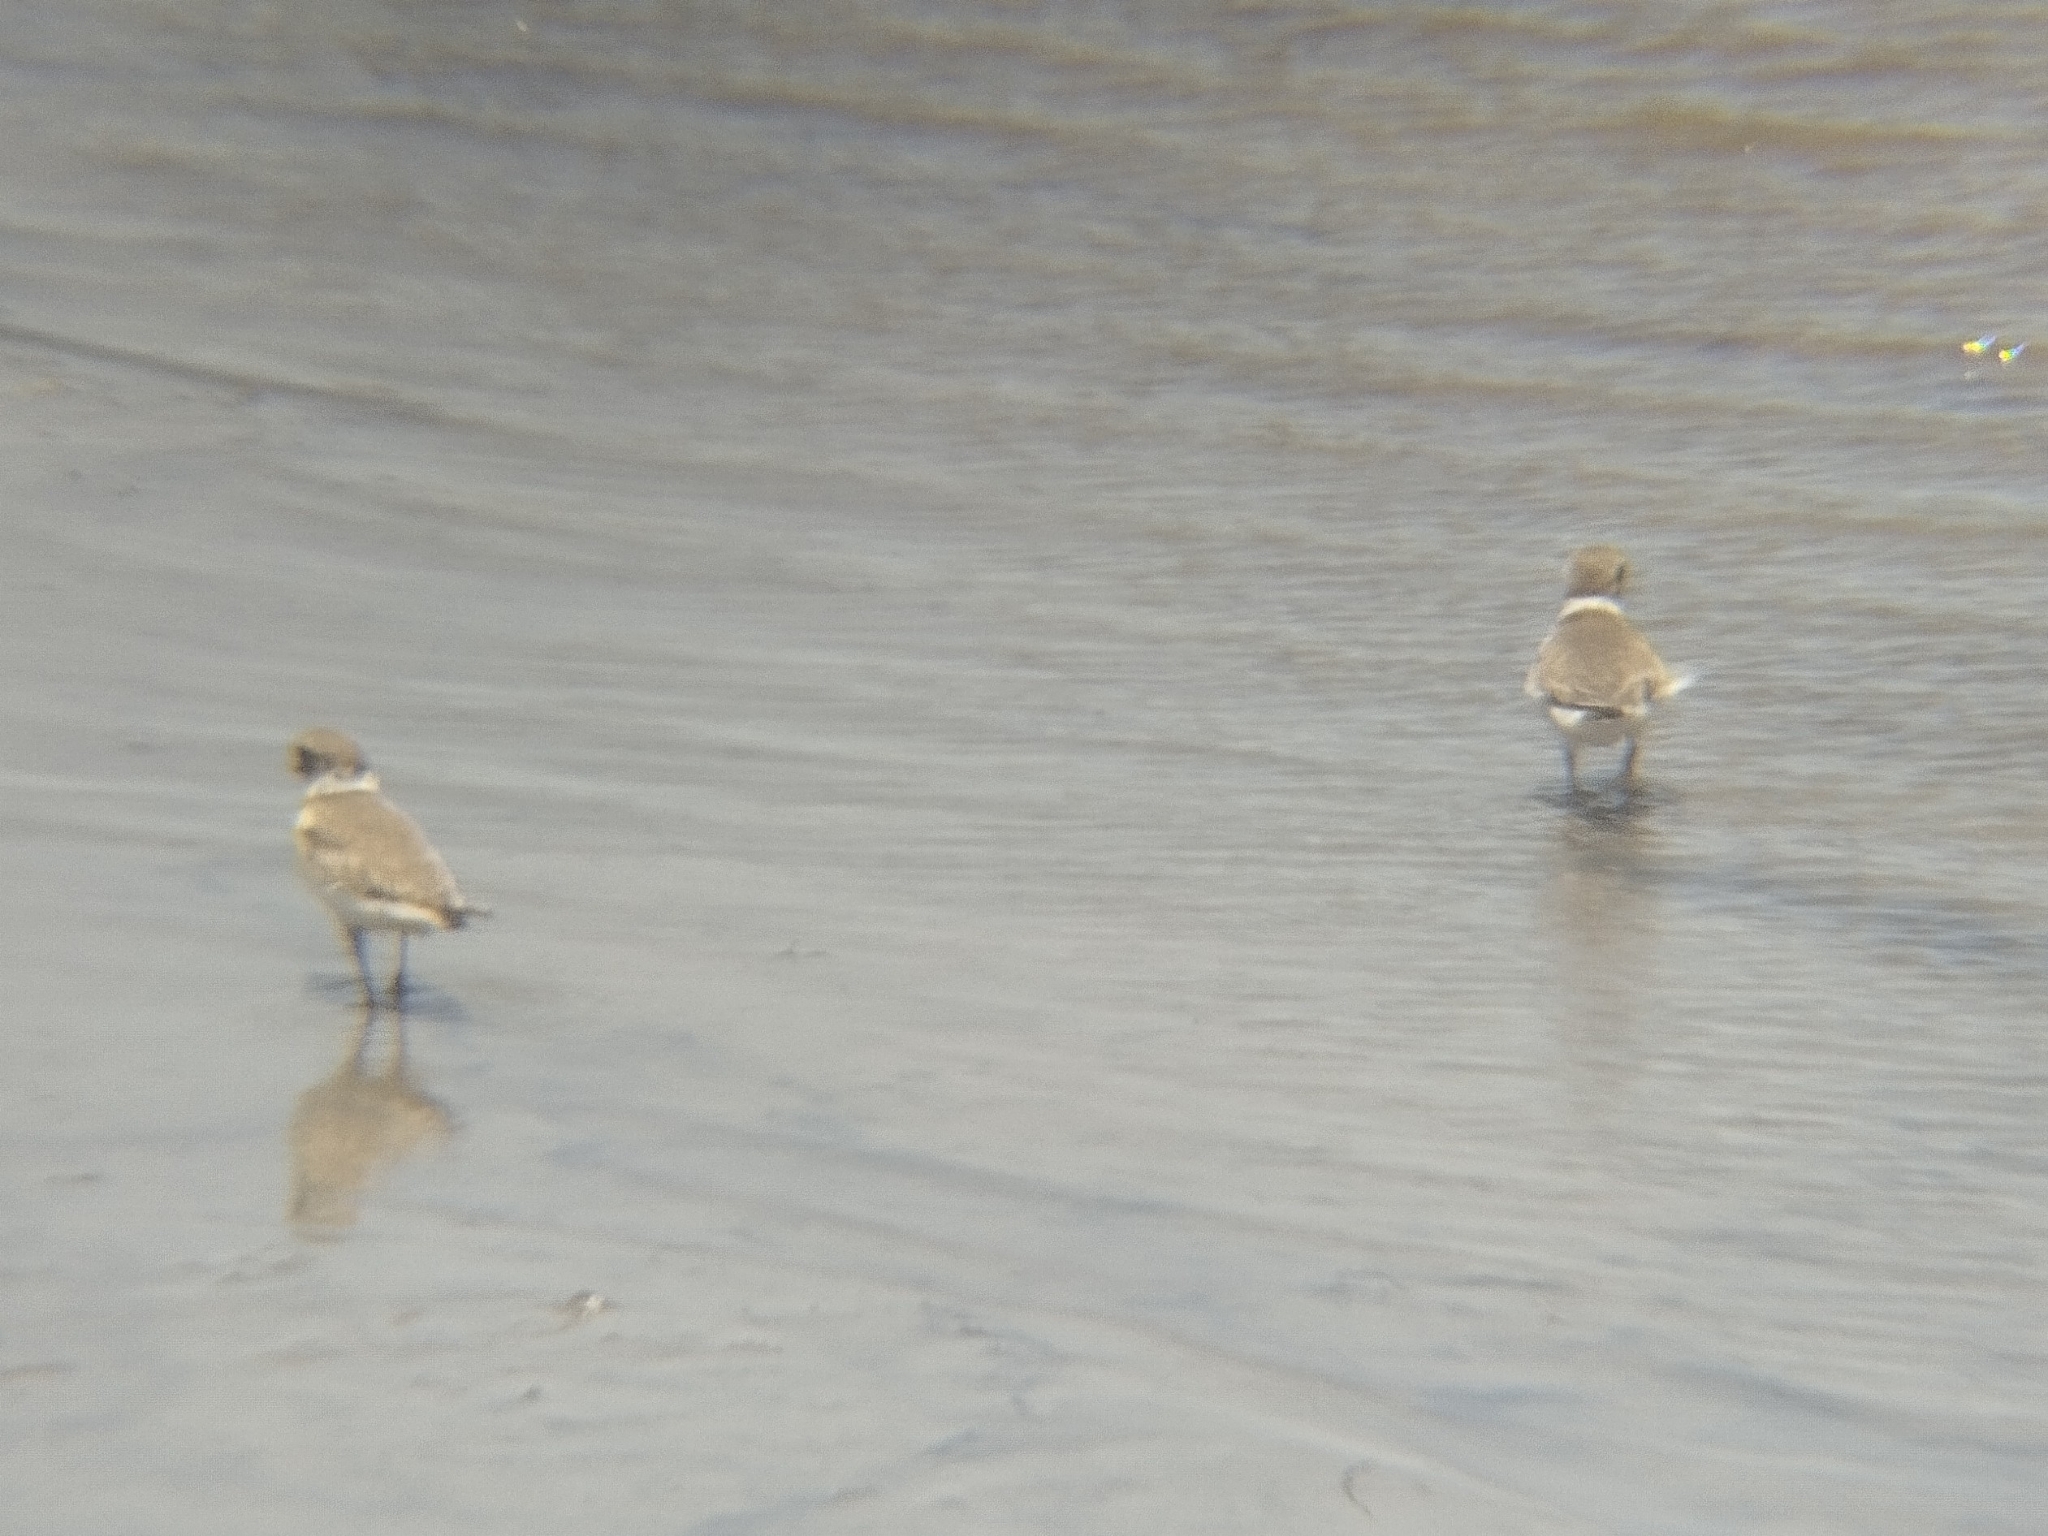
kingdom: Animalia
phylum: Chordata
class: Aves
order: Charadriiformes
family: Charadriidae
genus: Charadrius
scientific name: Charadrius semipalmatus
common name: Semipalmated plover
